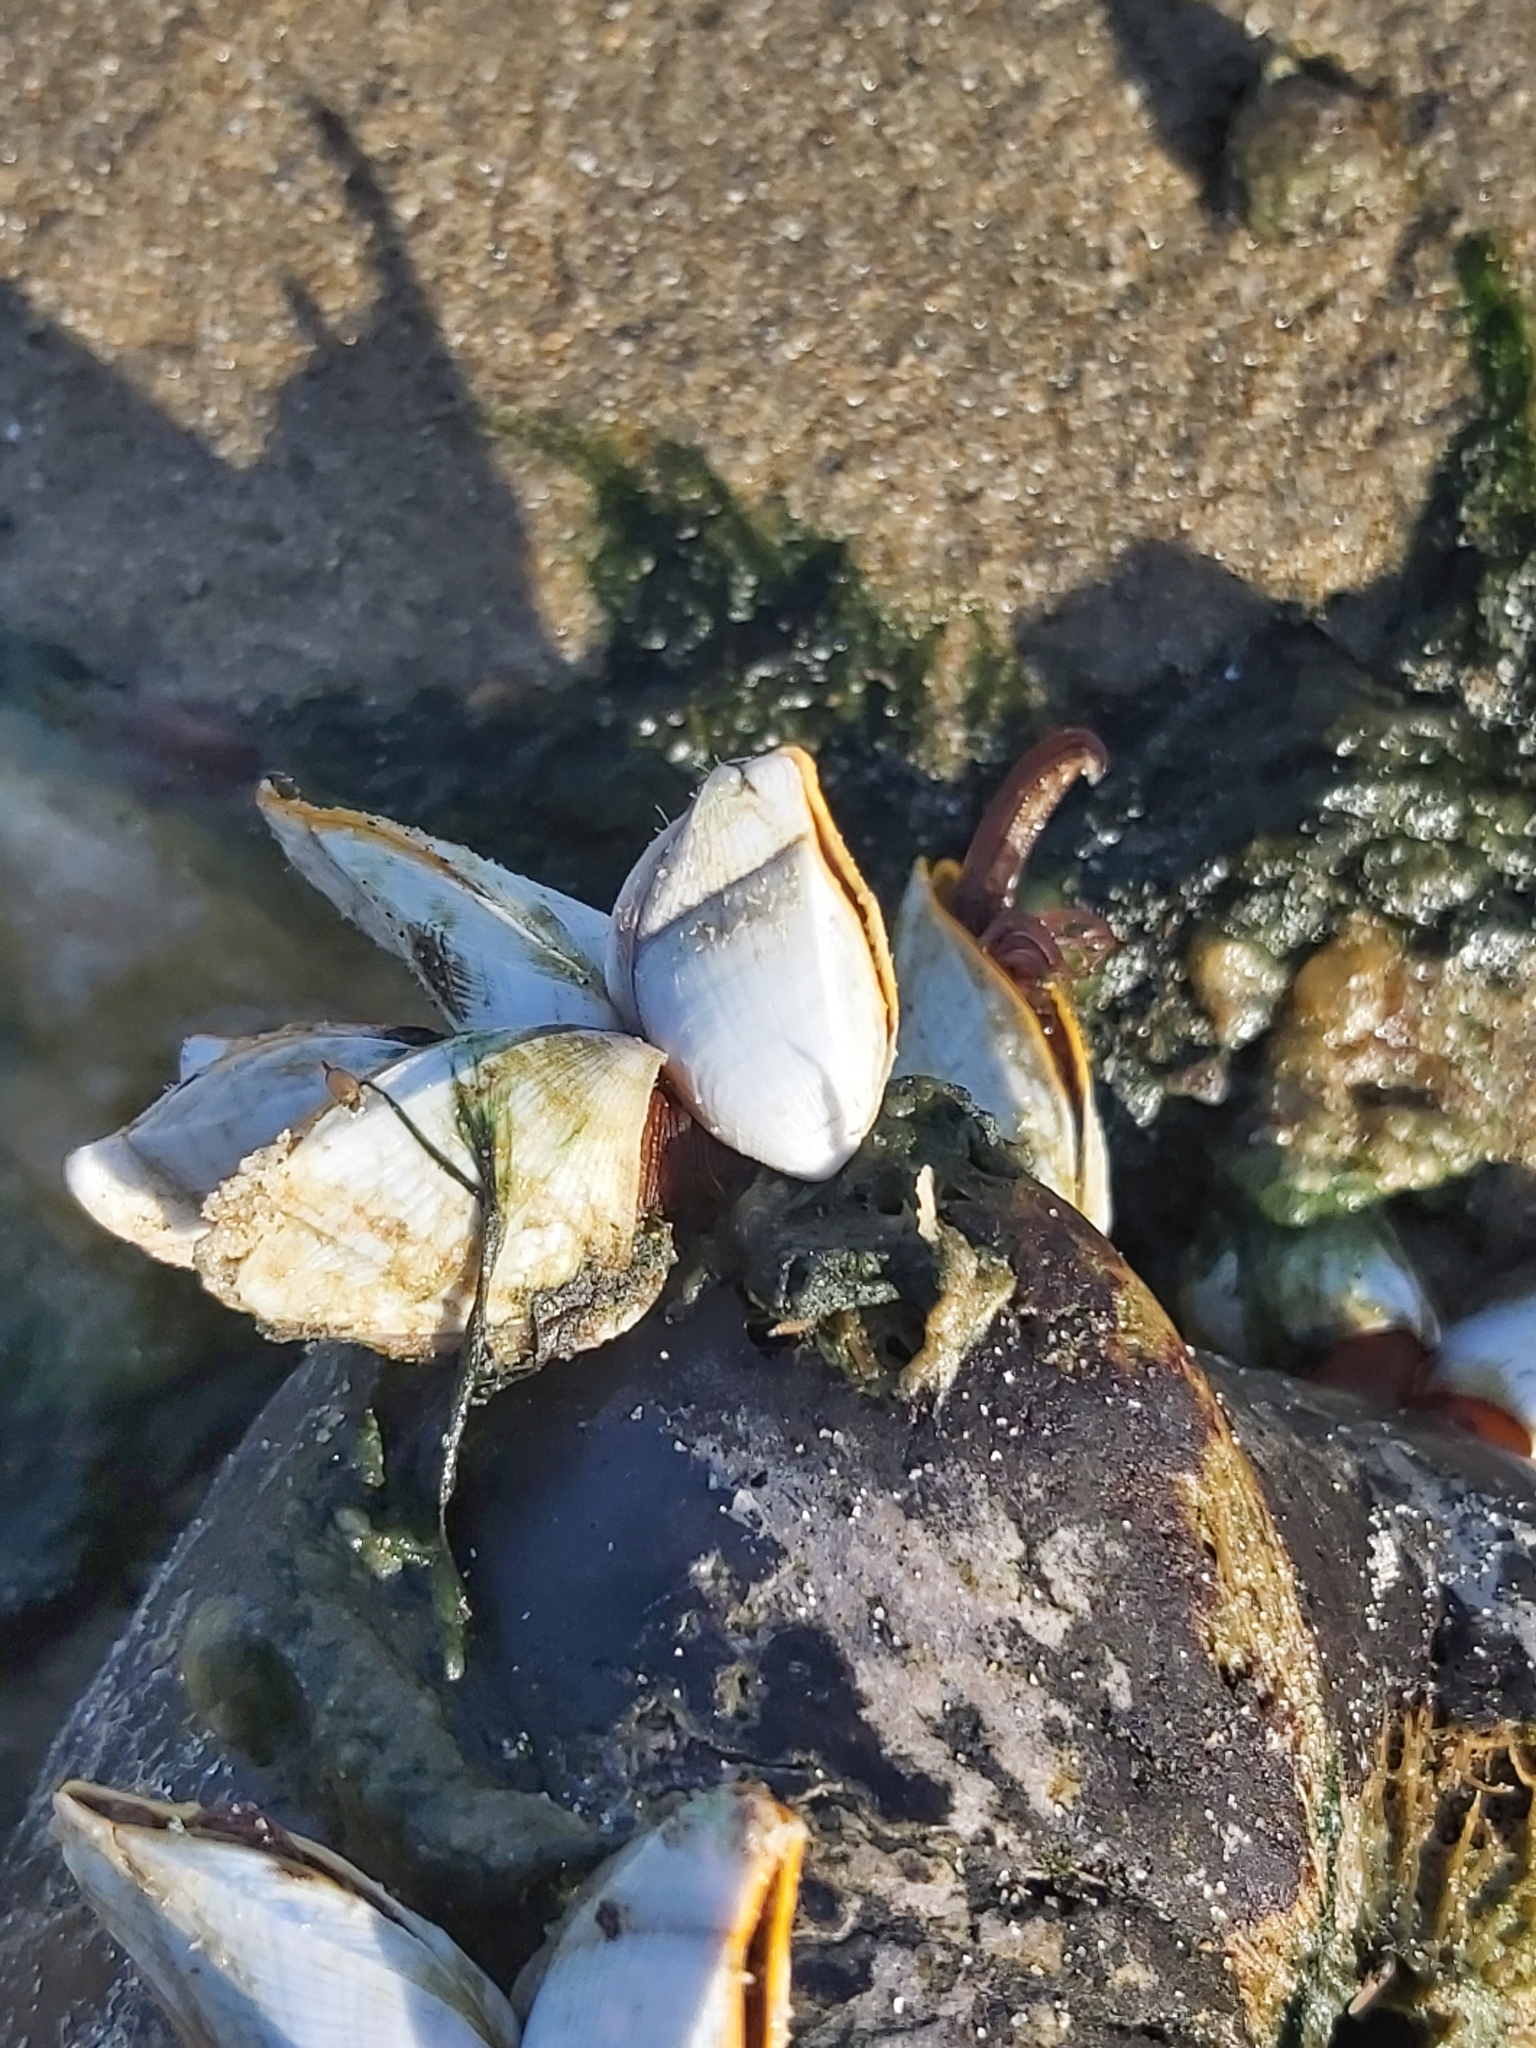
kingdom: Animalia
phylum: Arthropoda
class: Maxillopoda
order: Pedunculata
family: Lepadidae
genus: Lepas
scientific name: Lepas anserifera
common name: Goose barnacle
